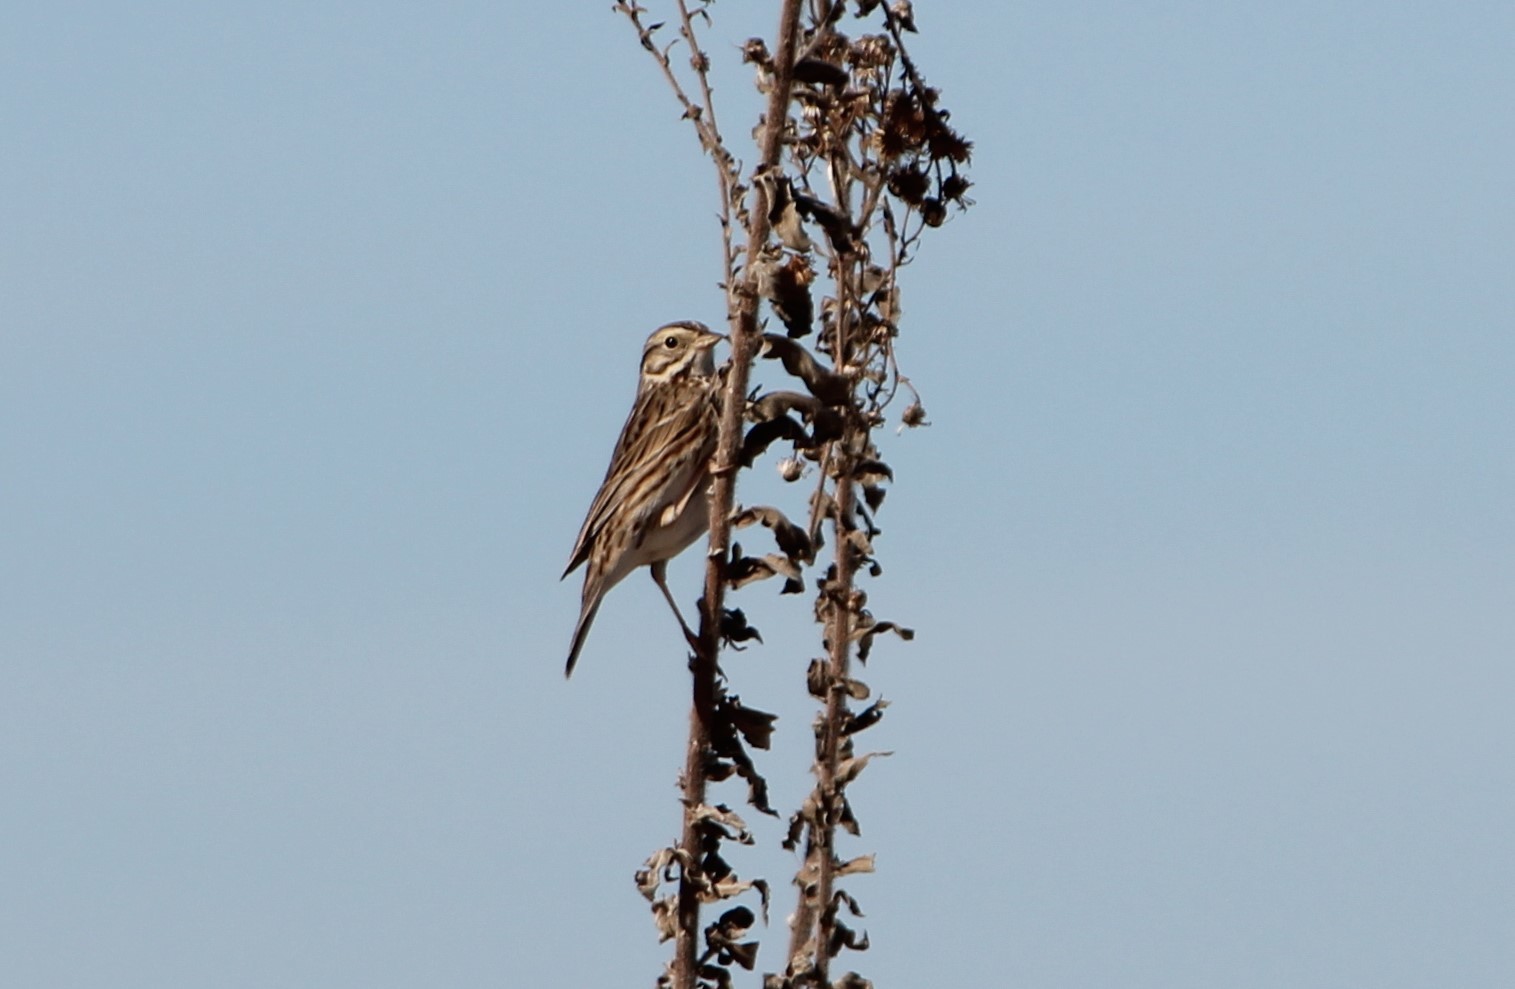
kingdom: Animalia
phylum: Chordata
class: Aves
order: Passeriformes
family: Passerellidae
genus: Passerculus
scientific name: Passerculus sandwichensis
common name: Savannah sparrow
